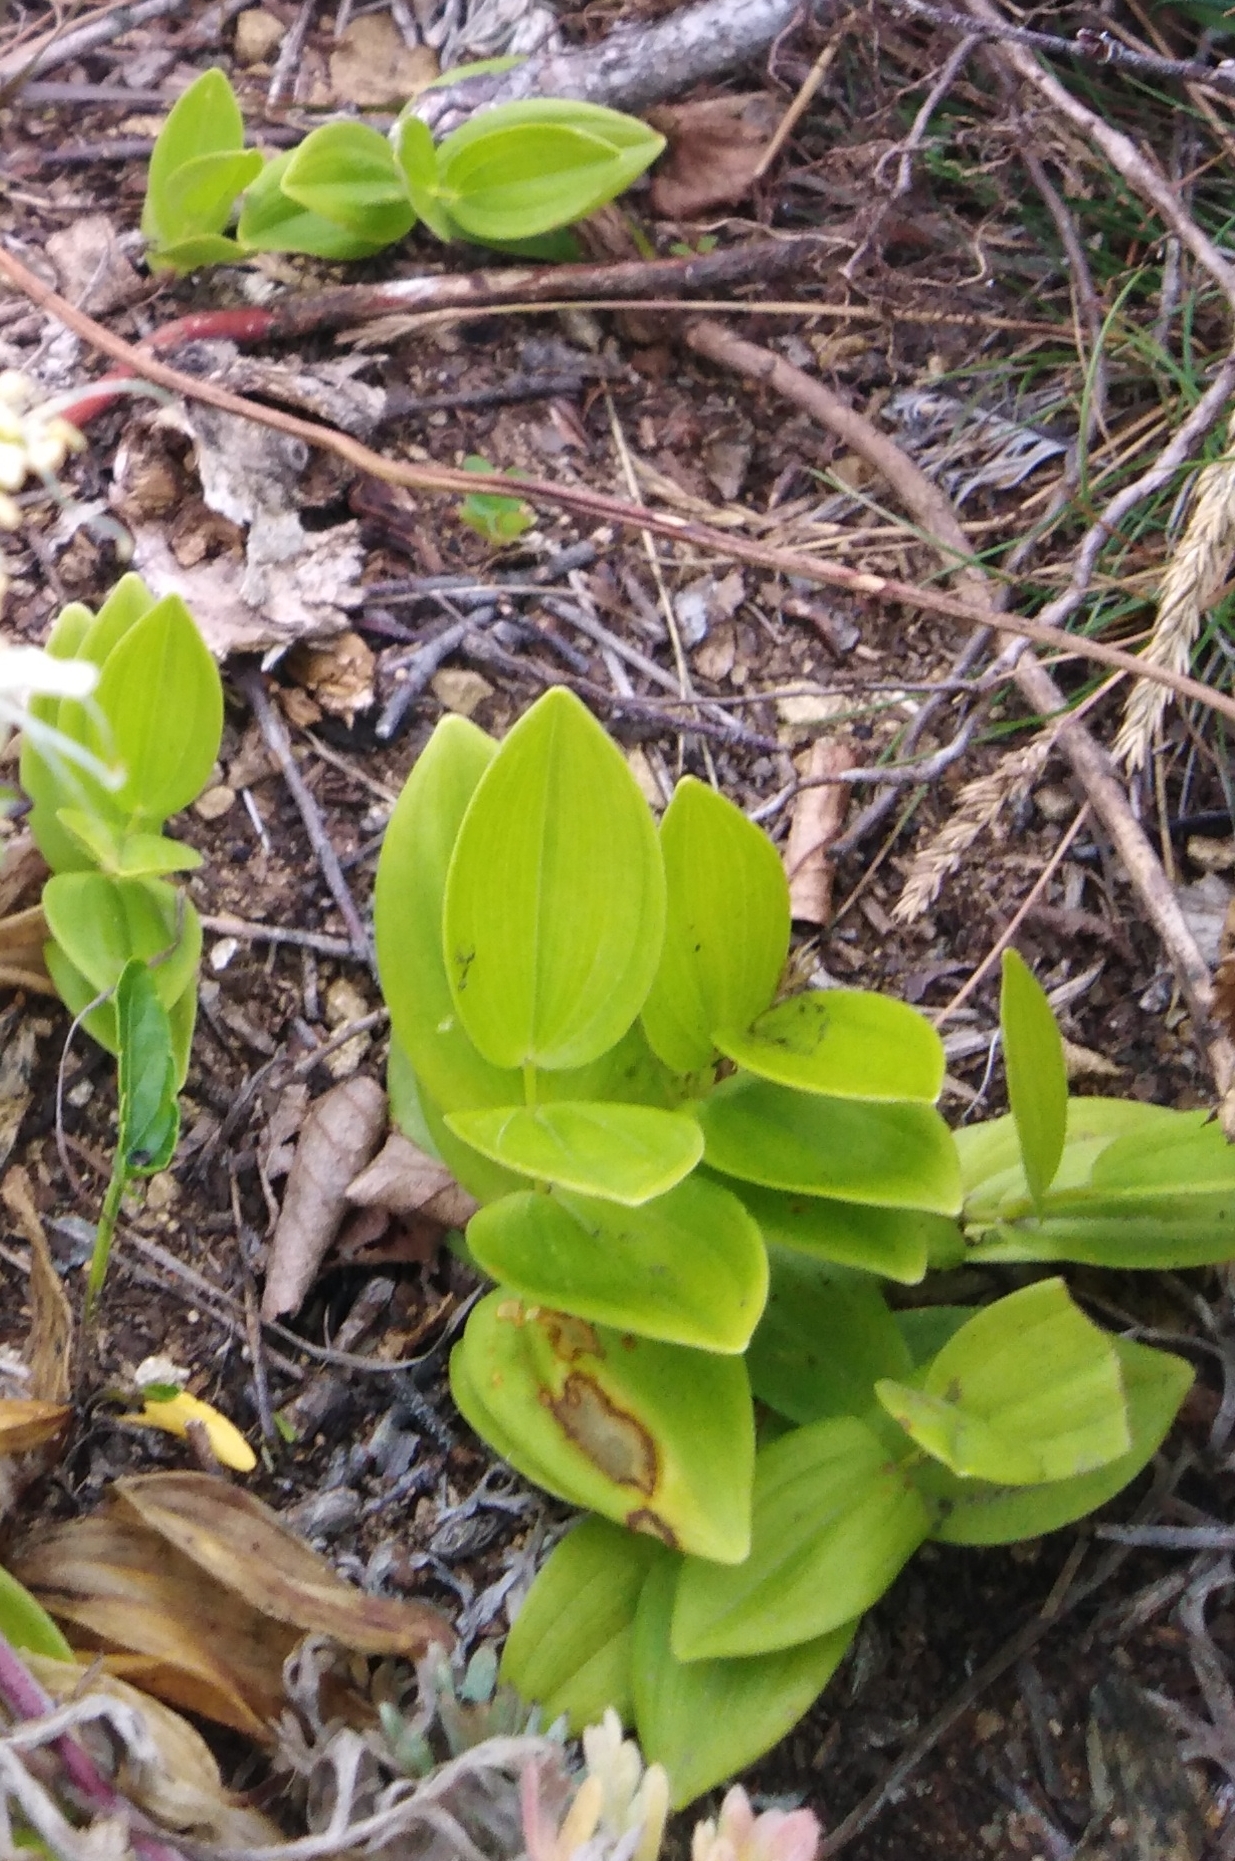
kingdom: Plantae
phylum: Tracheophyta
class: Liliopsida
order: Asparagales
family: Asparagaceae
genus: Polygonatum
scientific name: Polygonatum humile
